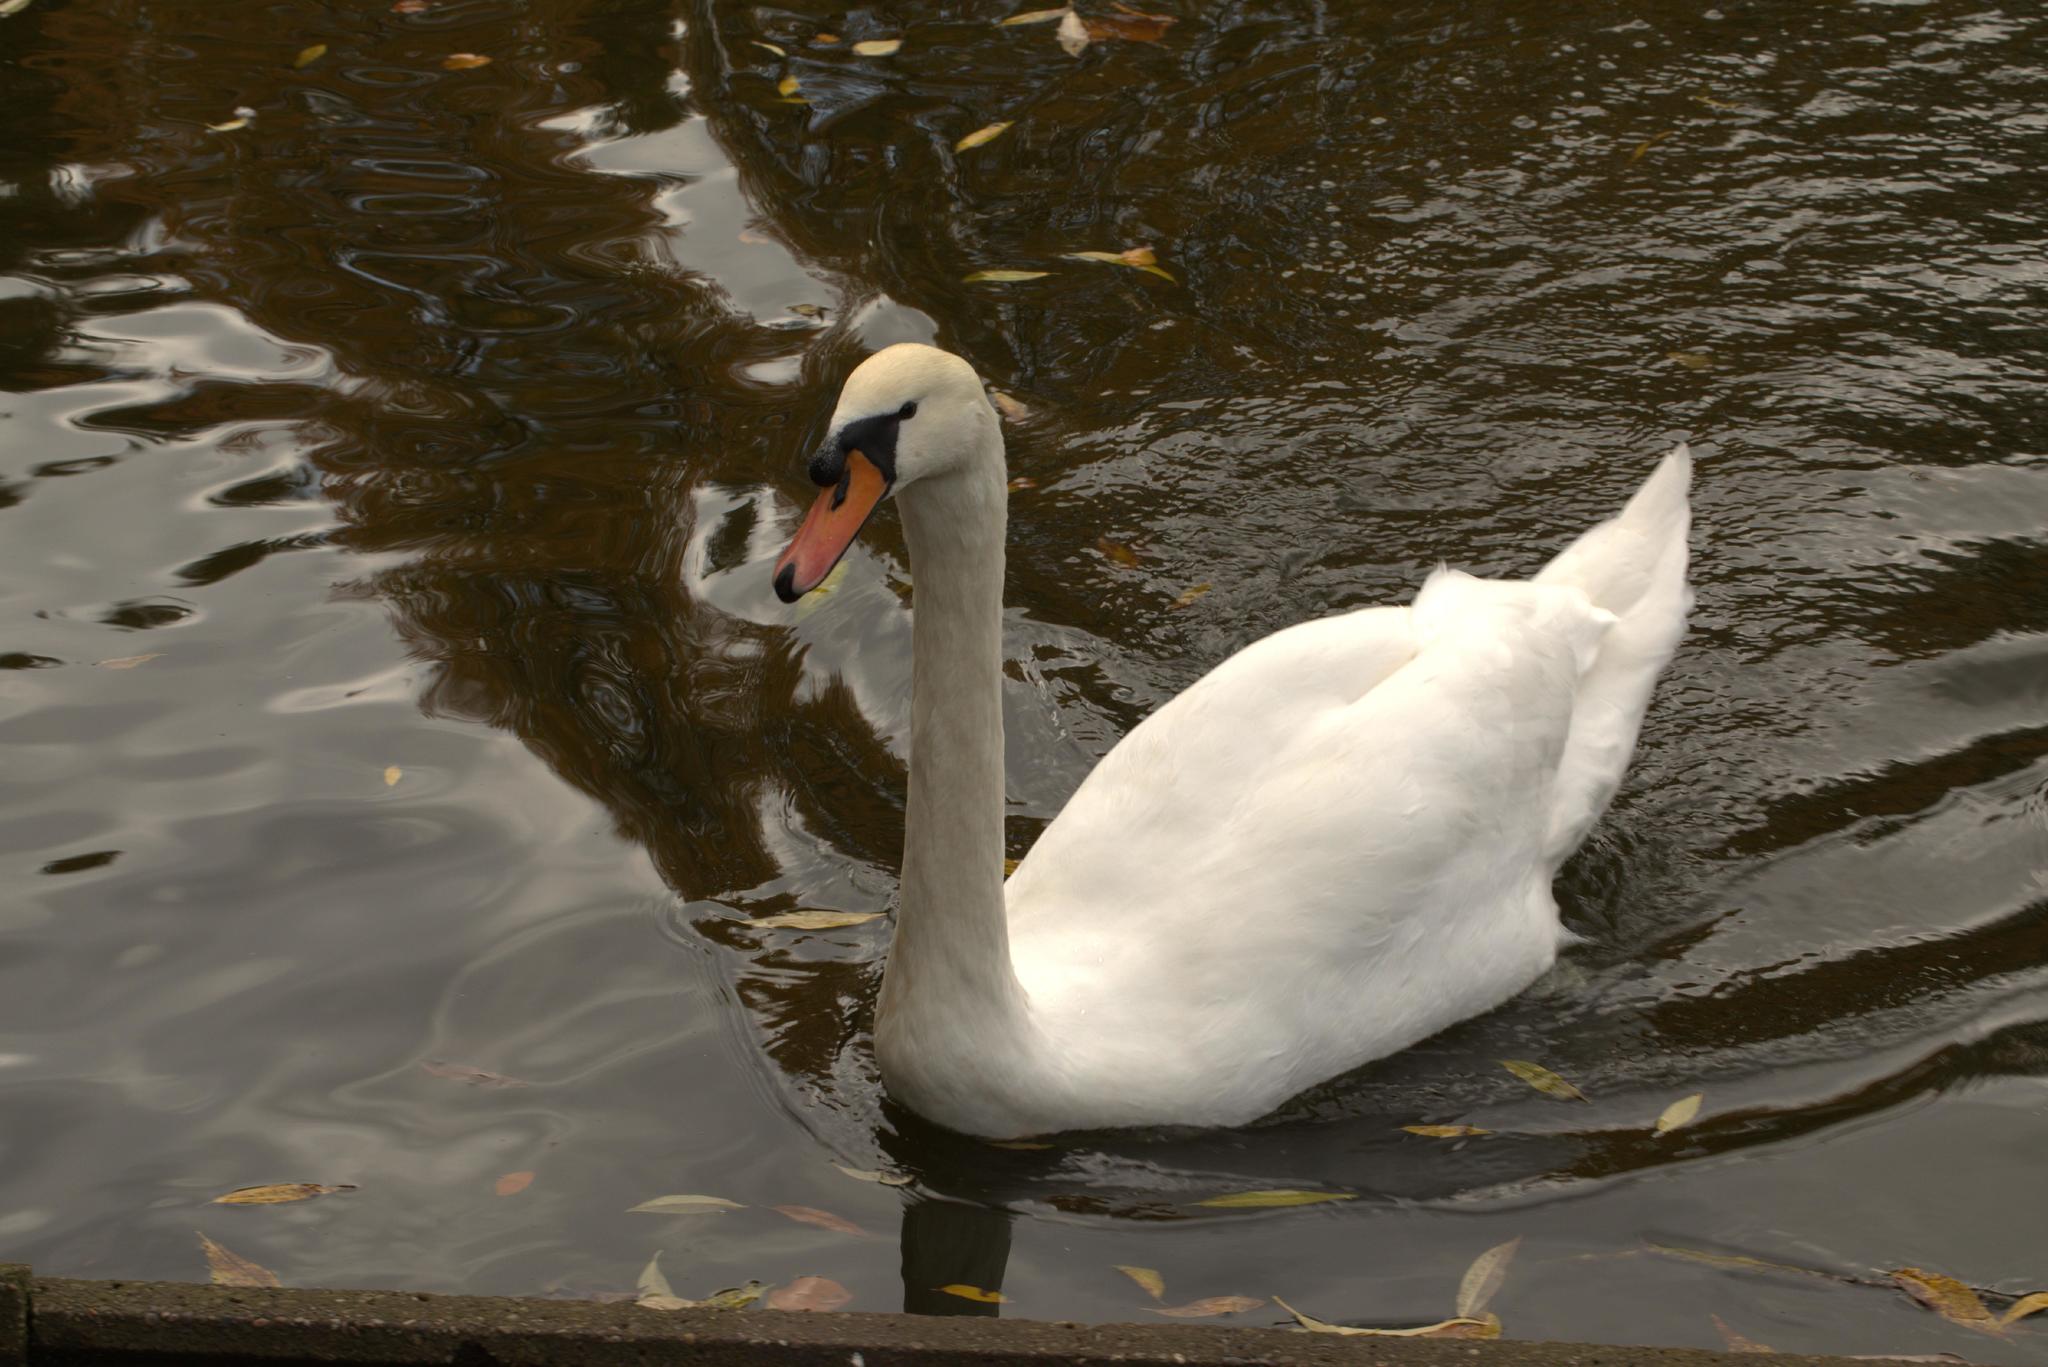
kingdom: Animalia
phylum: Chordata
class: Aves
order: Anseriformes
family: Anatidae
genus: Cygnus
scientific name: Cygnus olor
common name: Mute swan
